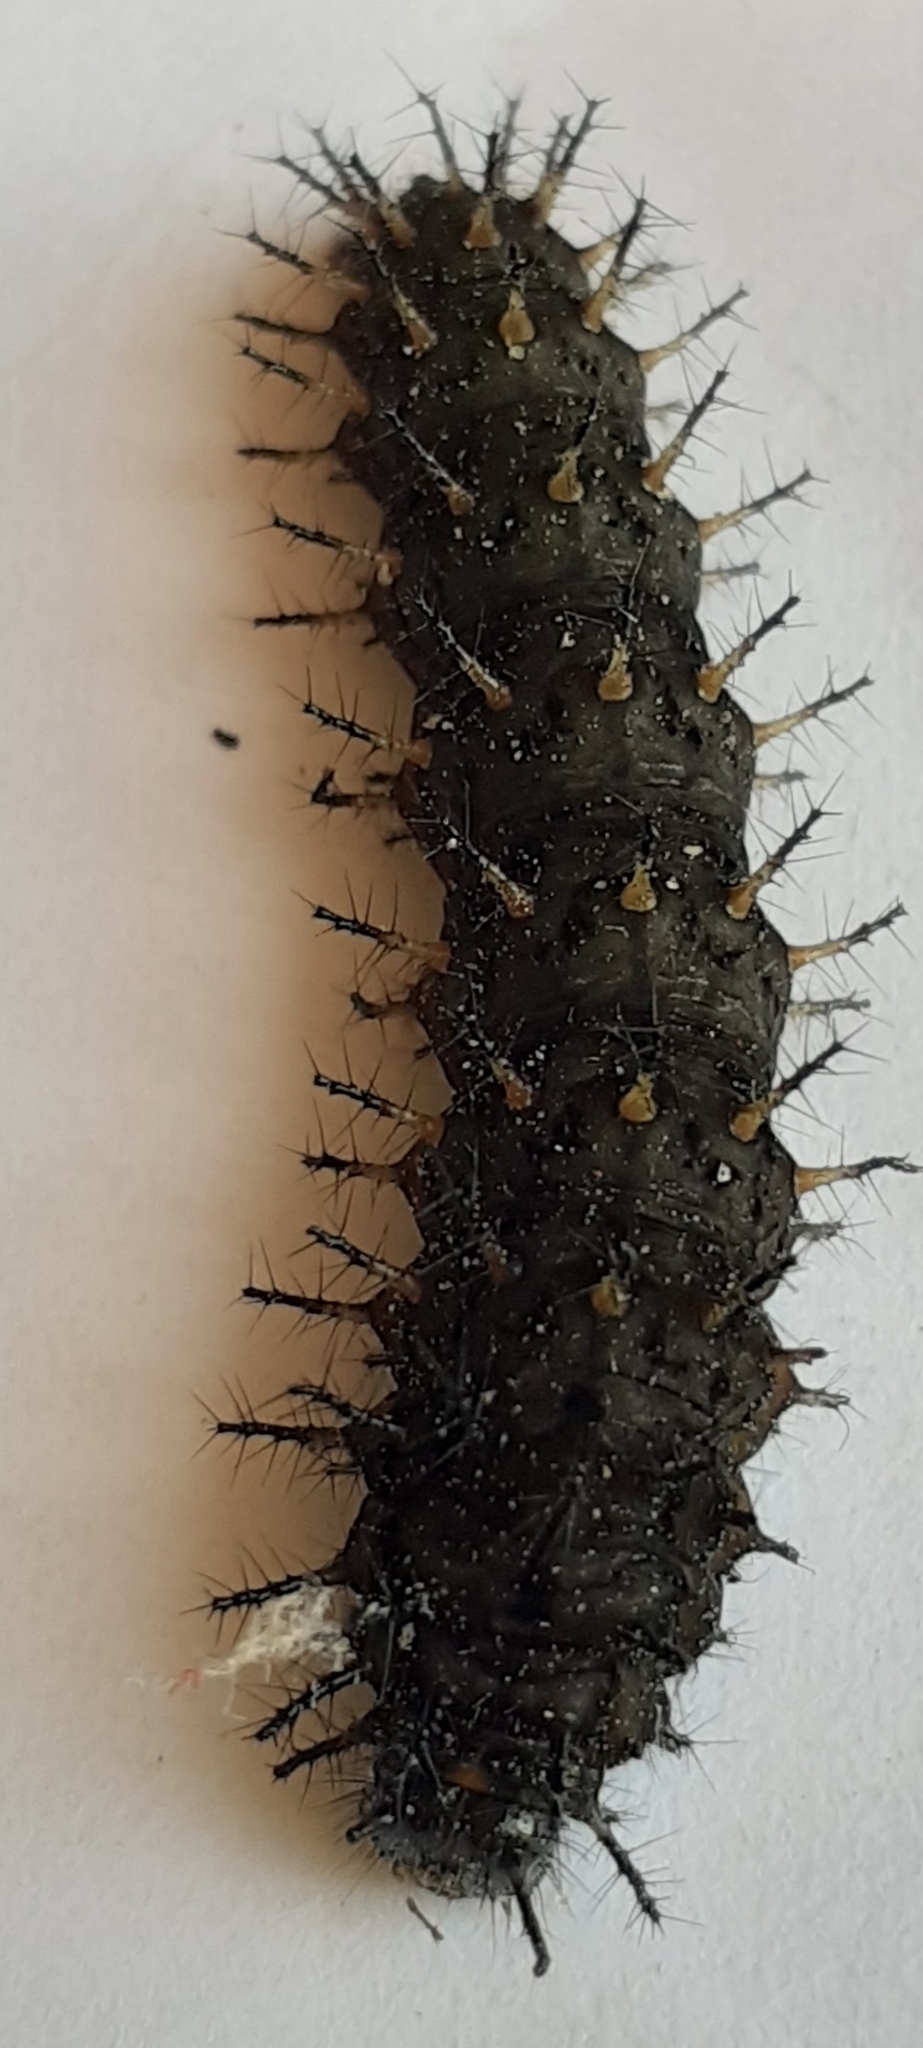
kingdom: Animalia
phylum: Arthropoda
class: Insecta
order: Lepidoptera
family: Nymphalidae
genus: Anartia
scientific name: Anartia jatrophae
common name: White peacock
